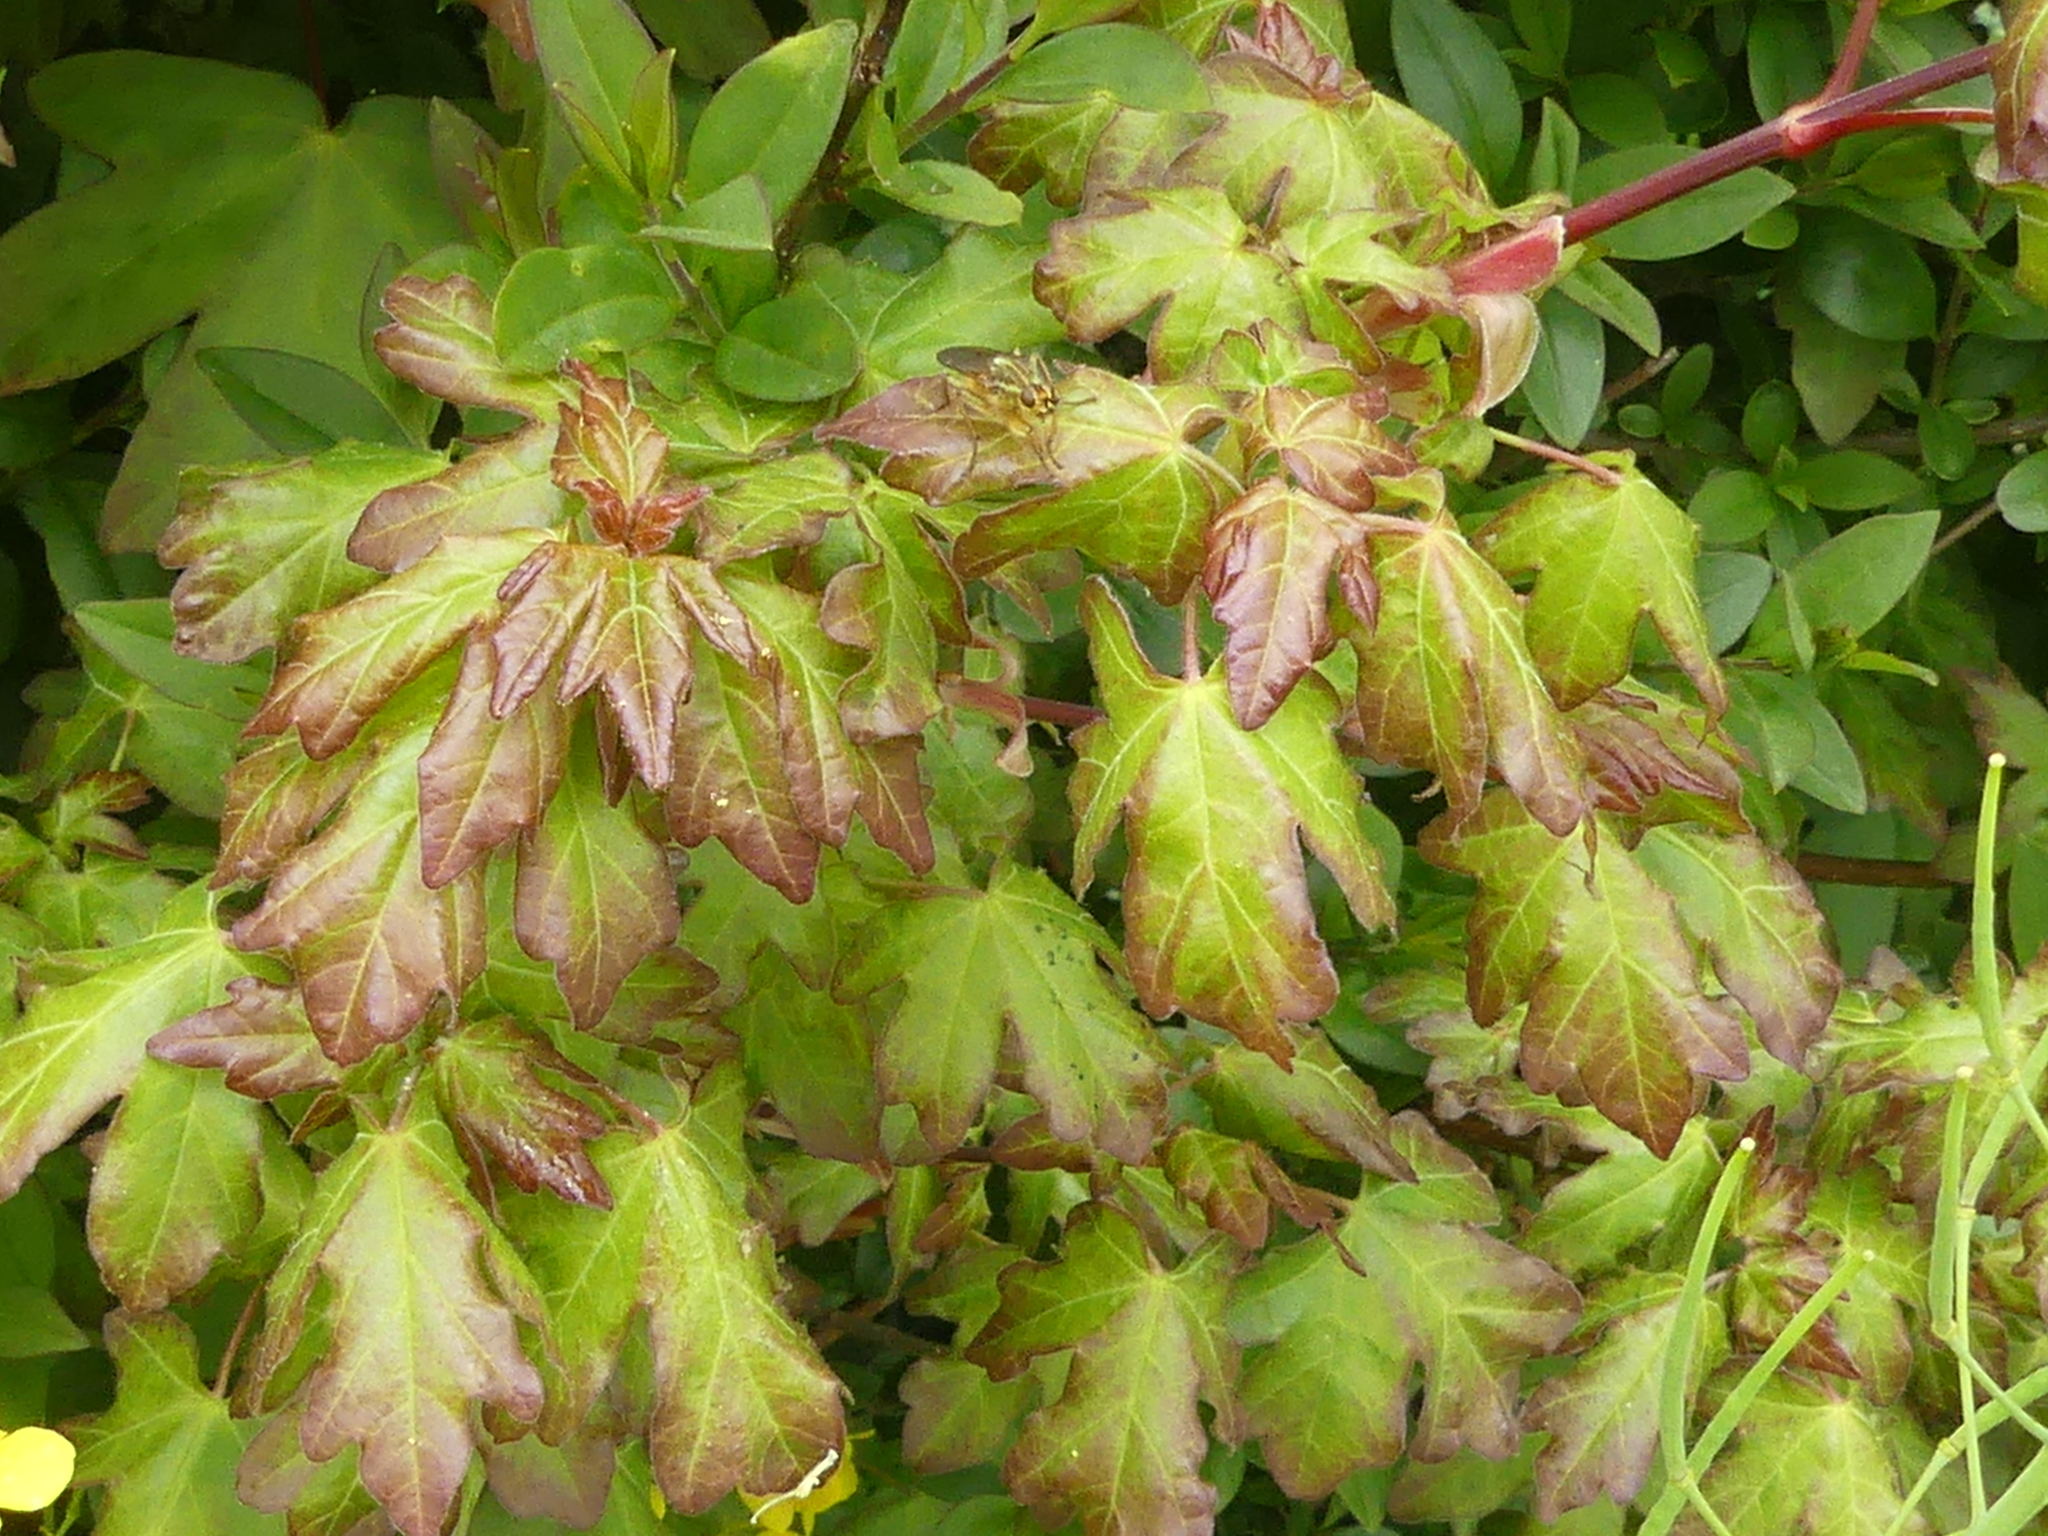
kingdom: Plantae
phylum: Tracheophyta
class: Magnoliopsida
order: Sapindales
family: Sapindaceae
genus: Acer
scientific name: Acer campestre
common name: Field maple
